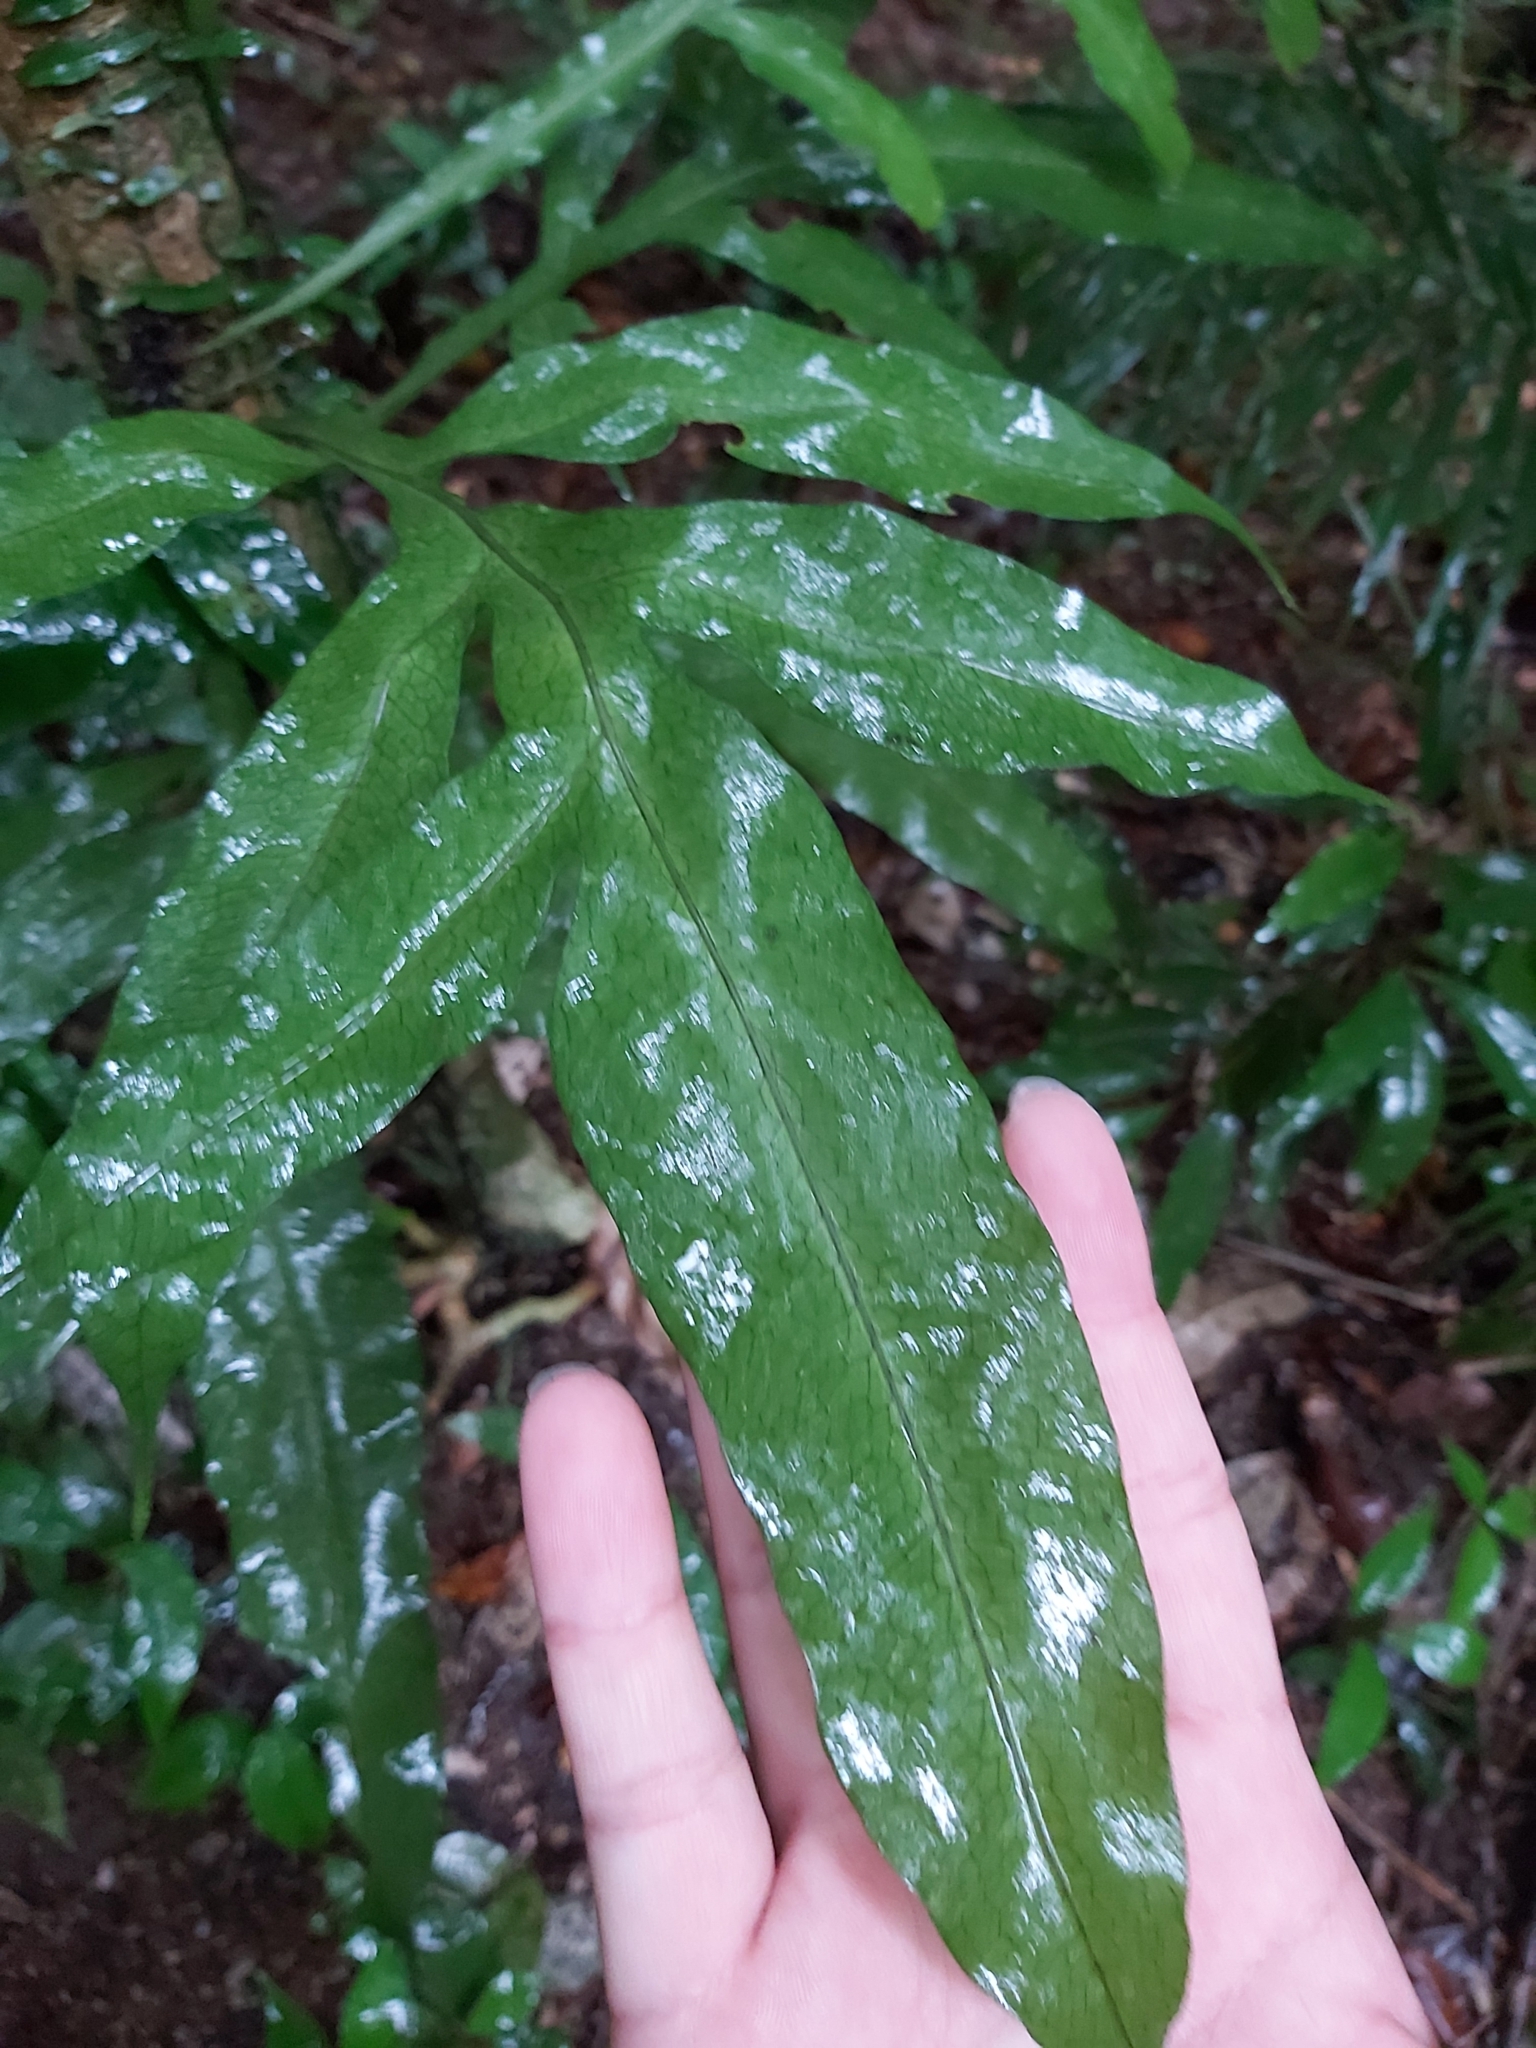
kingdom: Plantae
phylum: Tracheophyta
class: Polypodiopsida
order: Polypodiales
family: Polypodiaceae
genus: Lecanopteris
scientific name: Lecanopteris ampla
